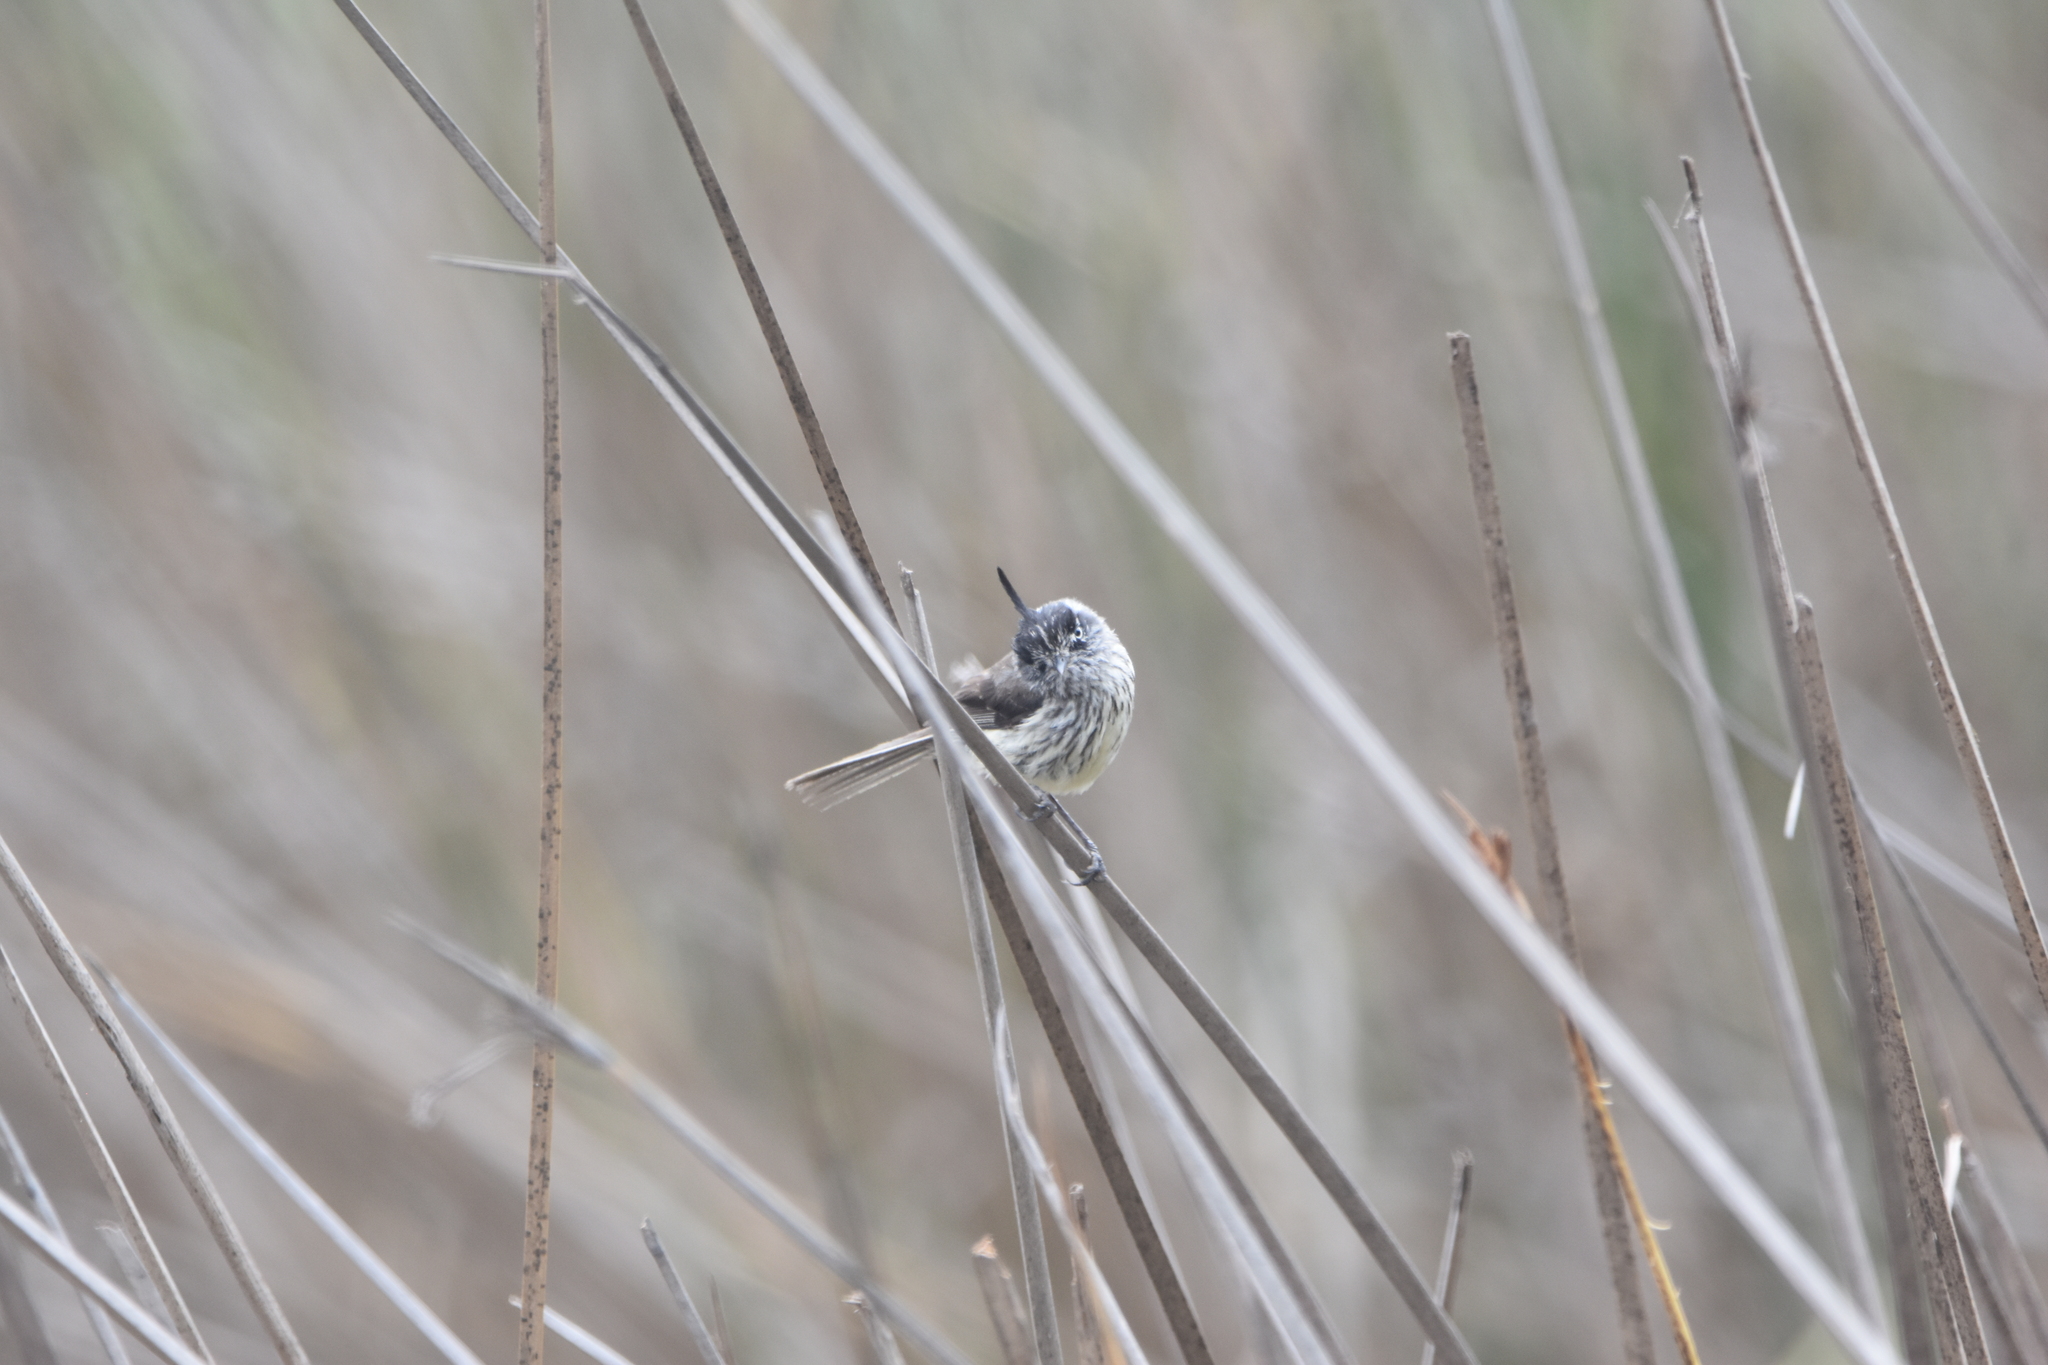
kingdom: Animalia
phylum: Chordata
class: Aves
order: Passeriformes
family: Tyrannidae
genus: Anairetes
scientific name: Anairetes parulus
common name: Tufted tit-tyrant
